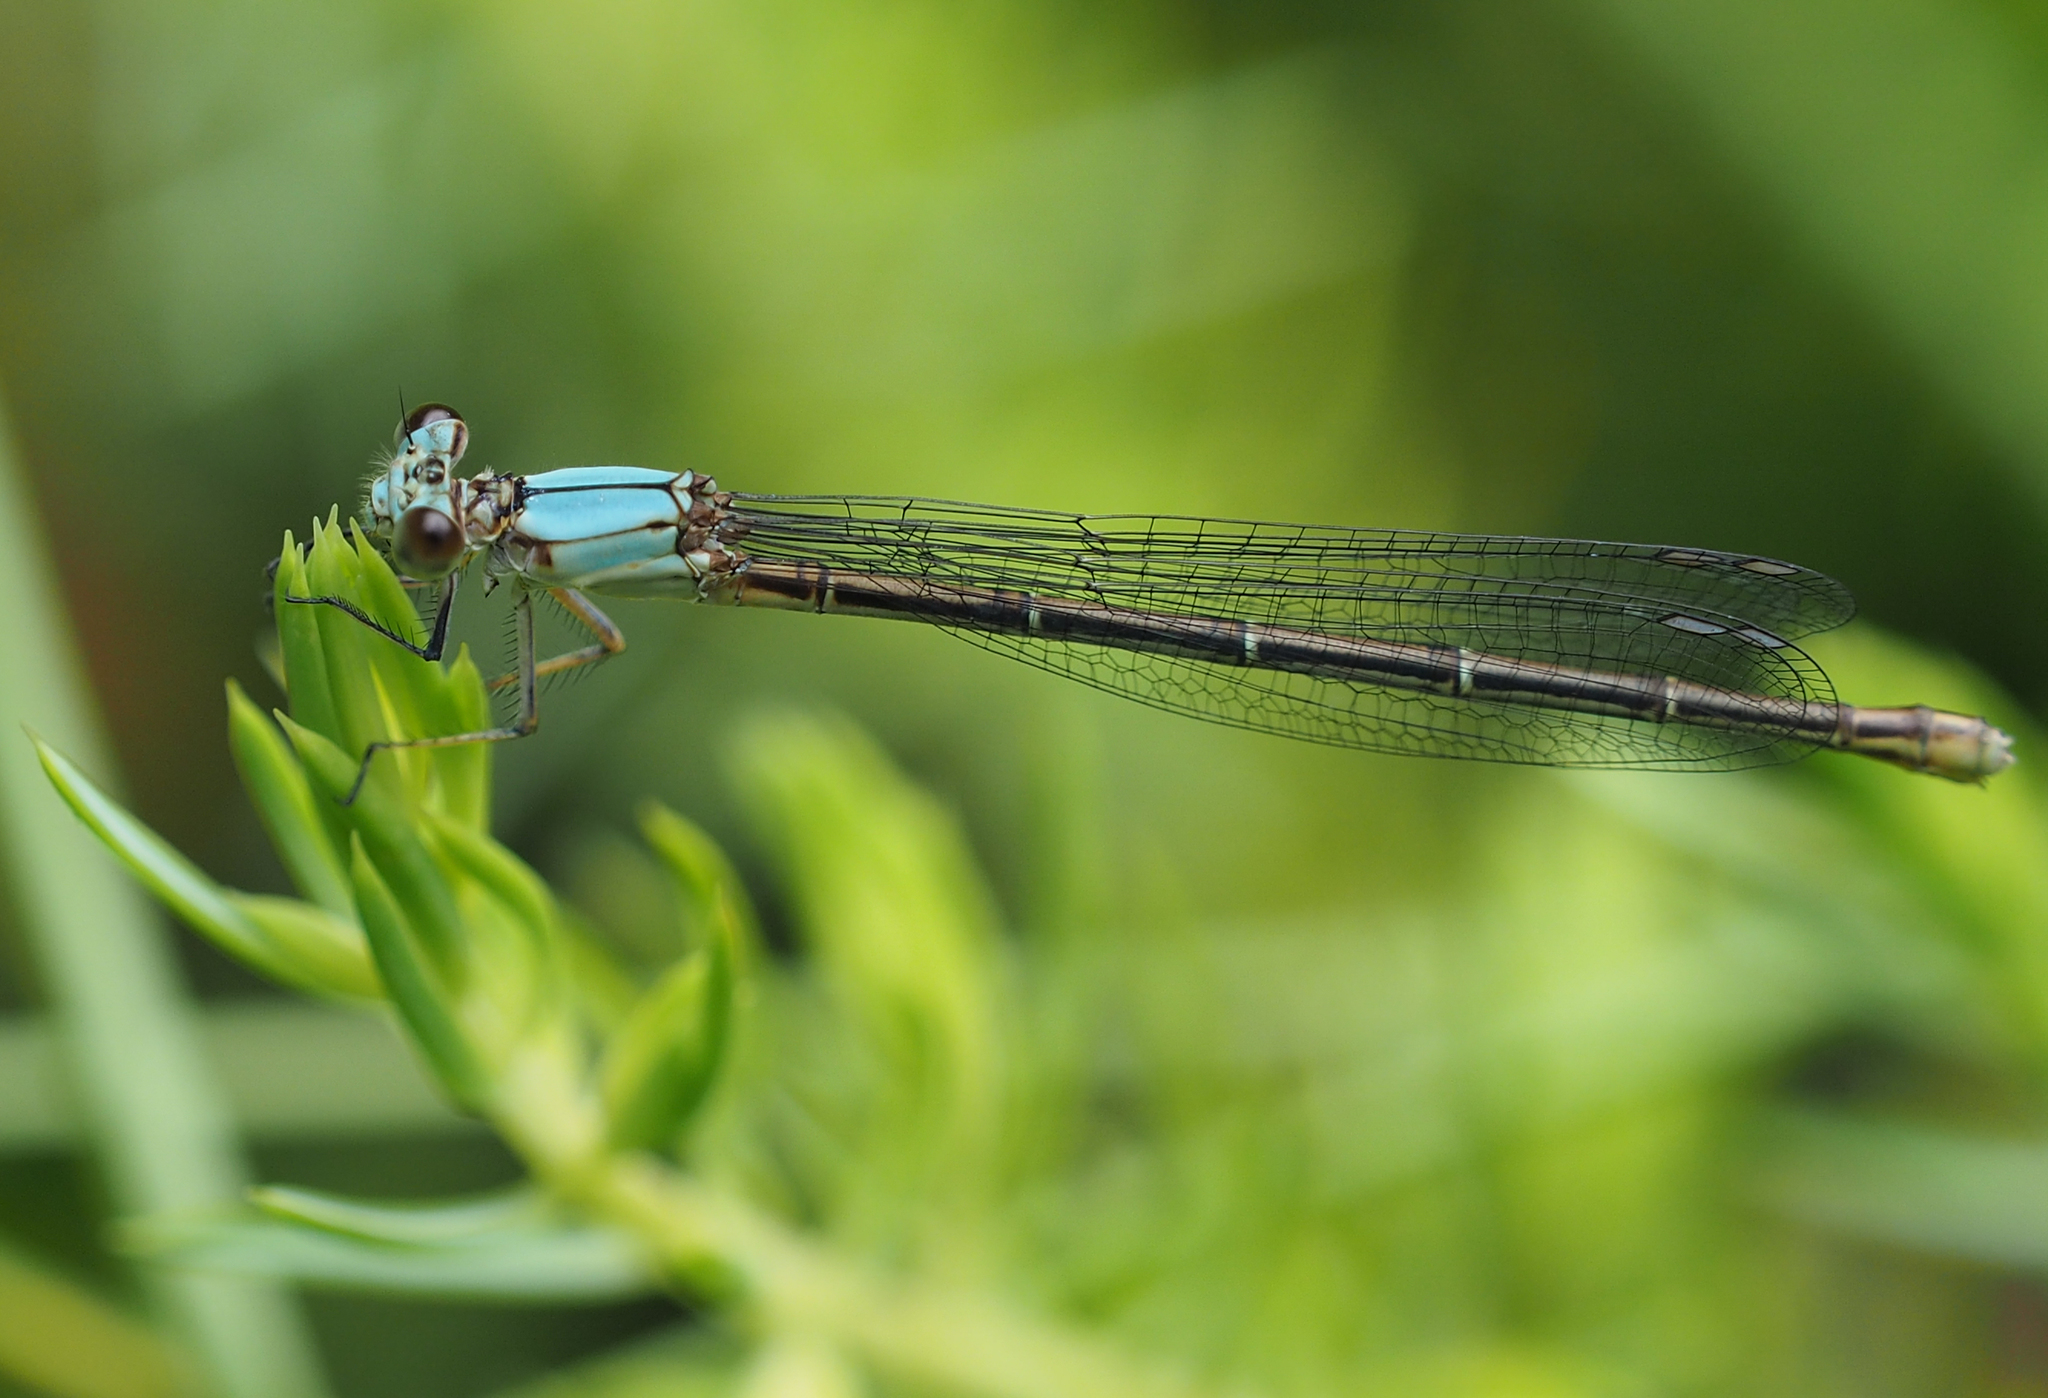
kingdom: Animalia
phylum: Arthropoda
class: Insecta
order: Odonata
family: Coenagrionidae
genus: Argia
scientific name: Argia moesta
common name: Powdered dancer
